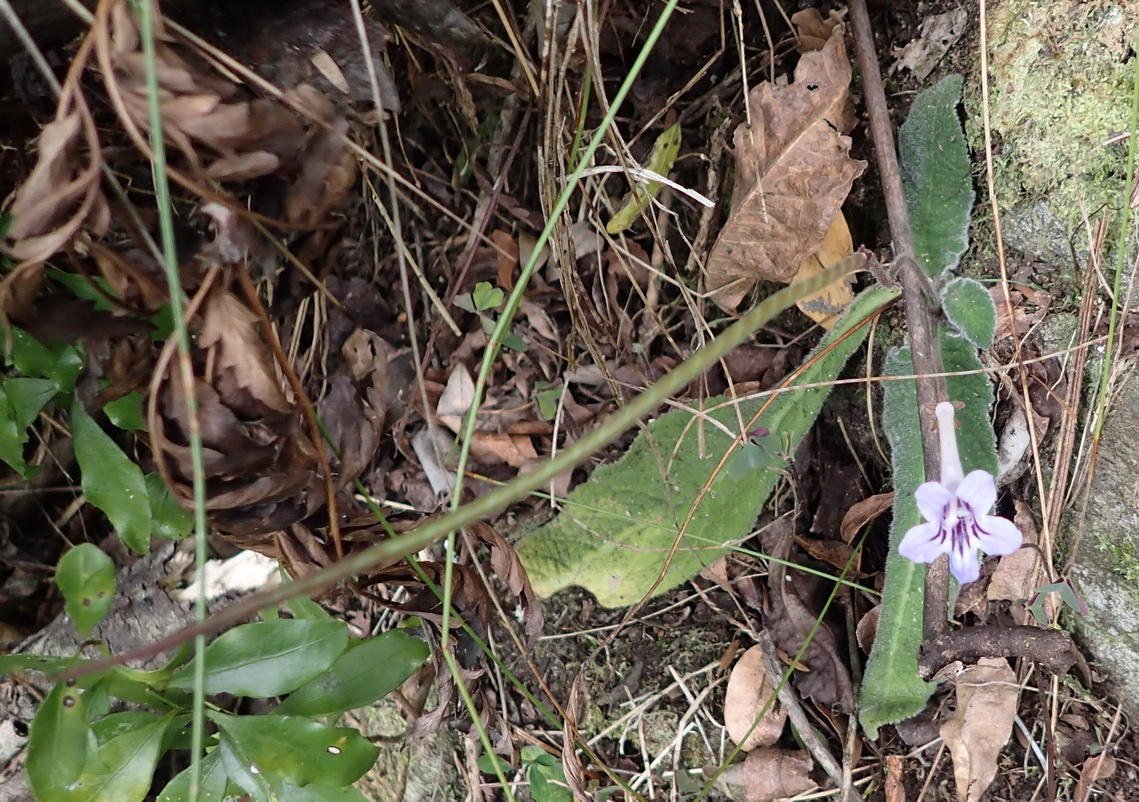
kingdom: Plantae
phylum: Tracheophyta
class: Magnoliopsida
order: Lamiales
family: Gesneriaceae
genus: Streptocarpus
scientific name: Streptocarpus rexii
